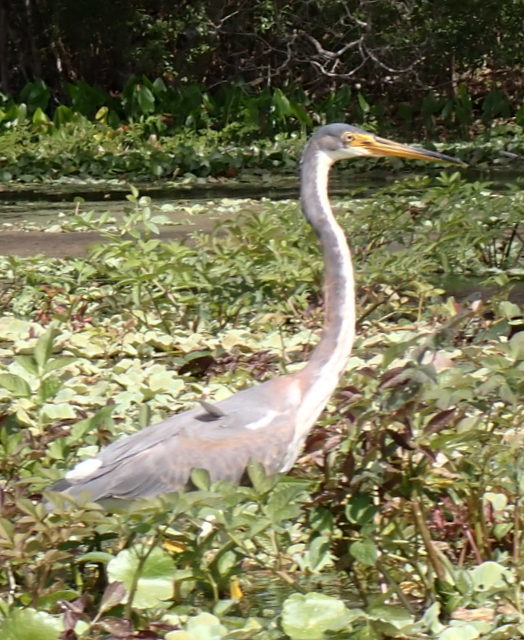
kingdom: Animalia
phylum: Chordata
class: Aves
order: Pelecaniformes
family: Ardeidae
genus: Egretta
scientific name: Egretta tricolor
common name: Tricolored heron
